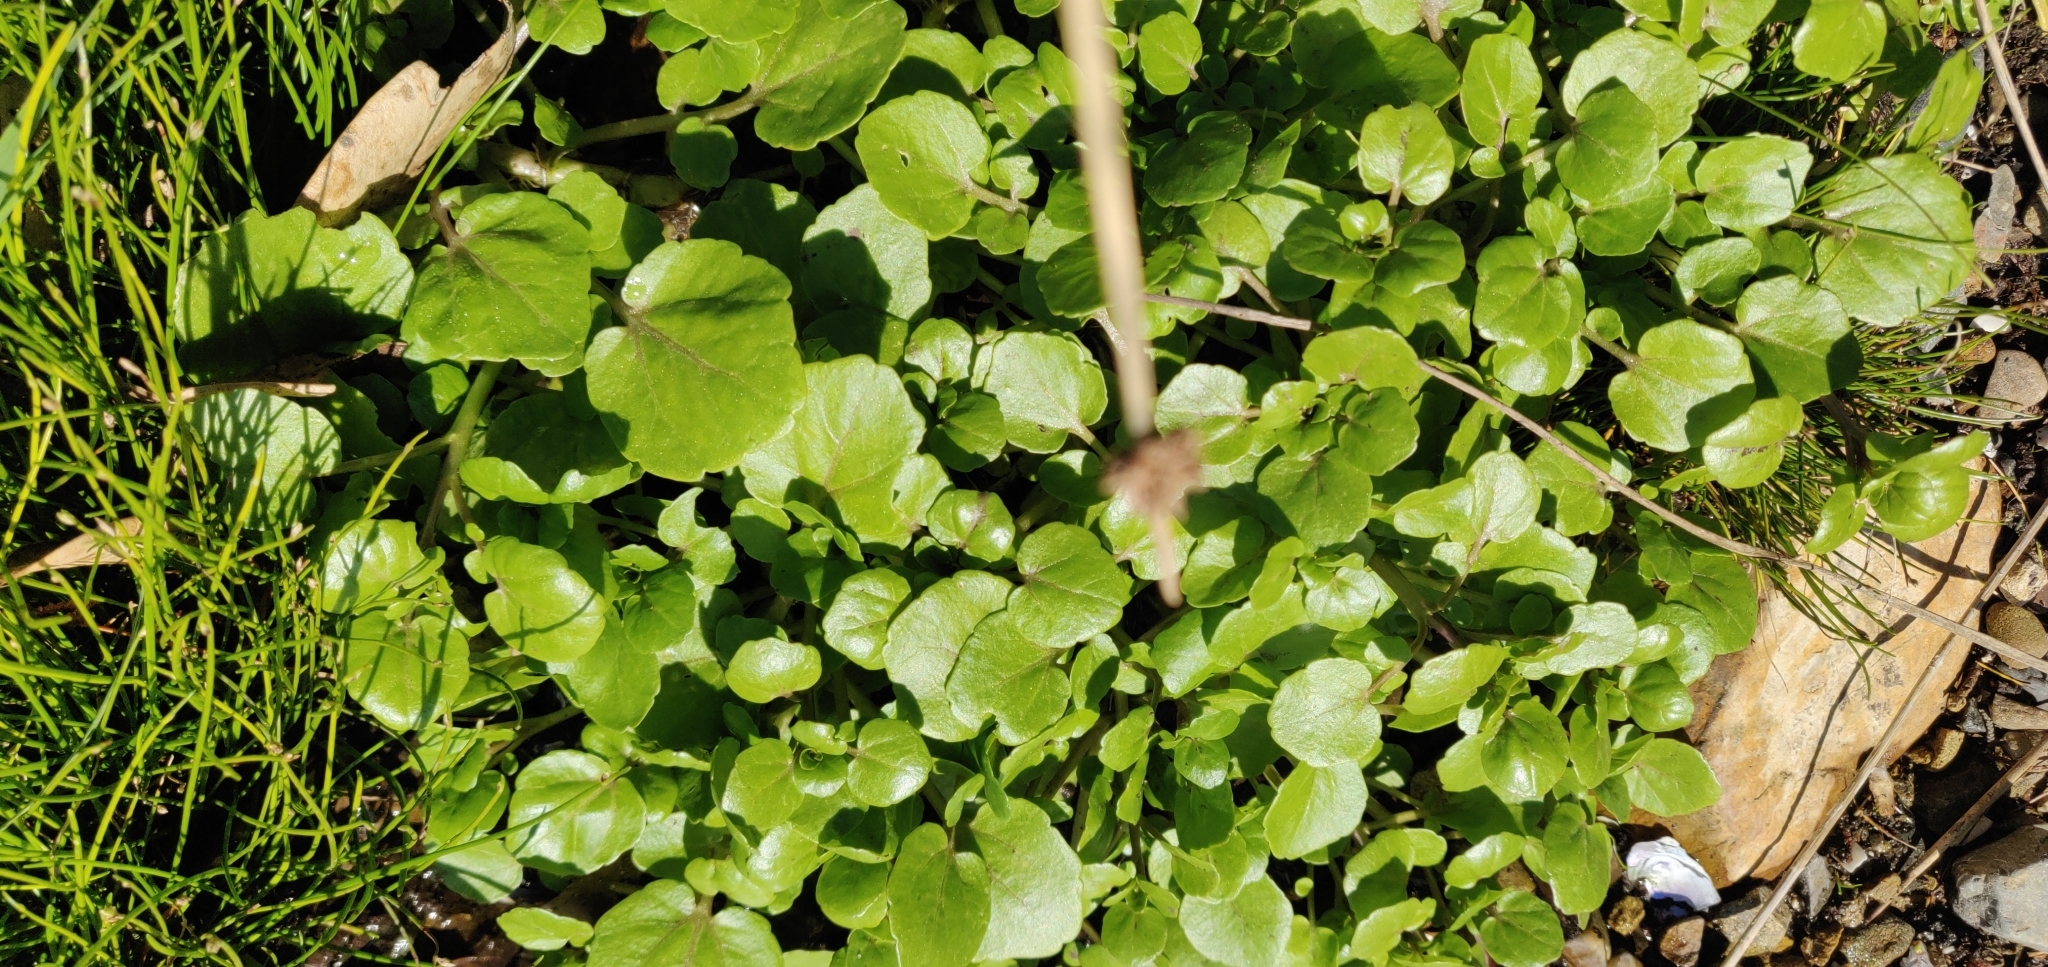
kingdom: Plantae
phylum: Tracheophyta
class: Magnoliopsida
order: Brassicales
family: Brassicaceae
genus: Nasturtium
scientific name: Nasturtium officinale
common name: Watercress
